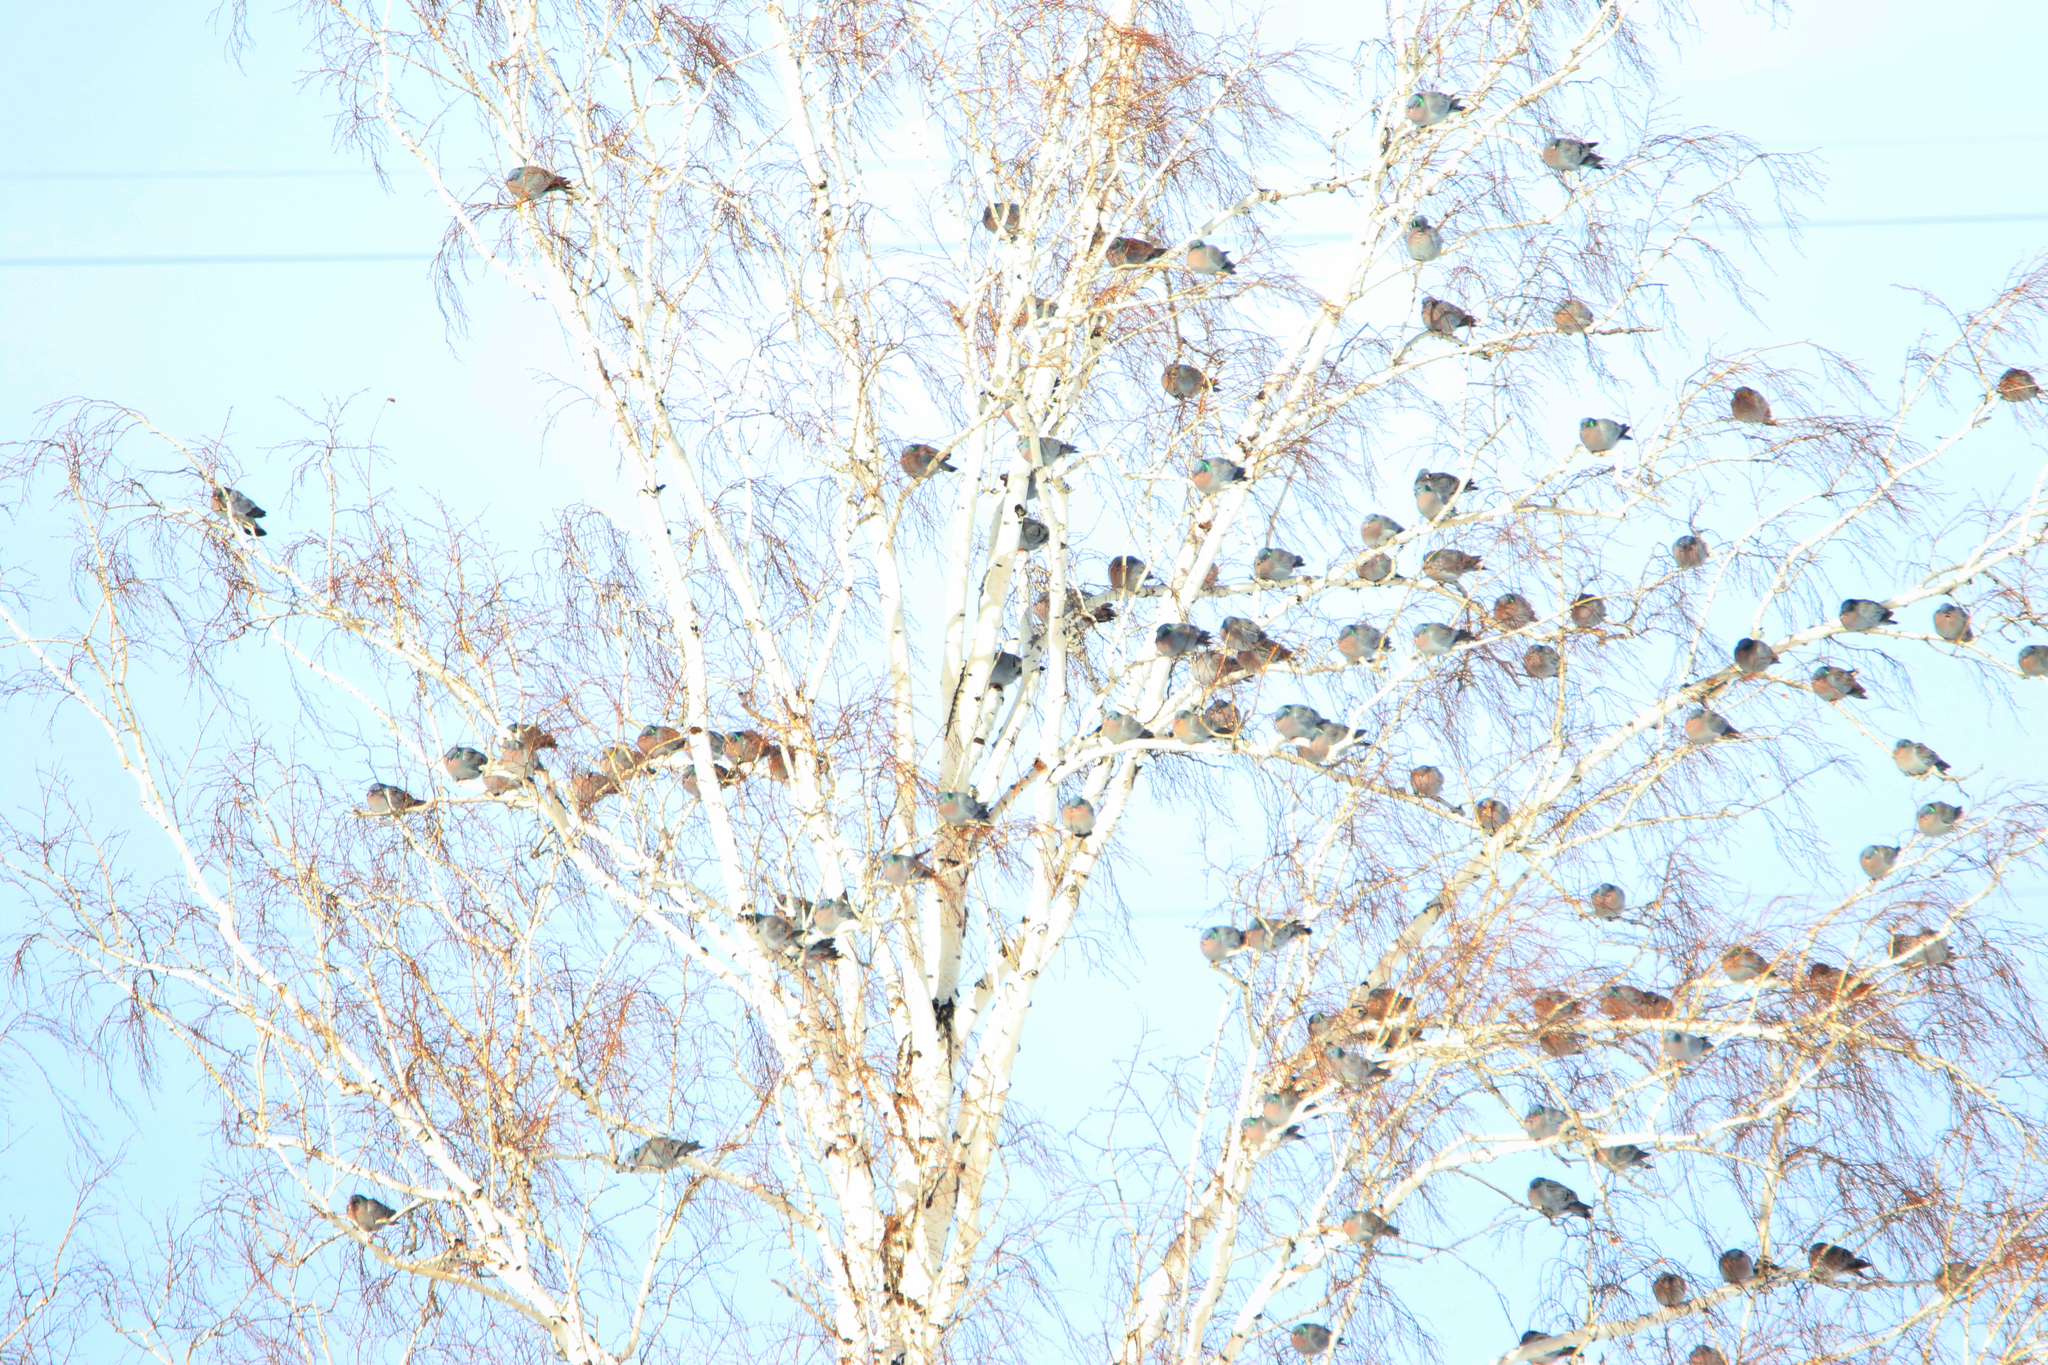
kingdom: Animalia
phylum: Chordata
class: Aves
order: Columbiformes
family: Columbidae
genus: Columba
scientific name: Columba oenas
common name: Stock dove
